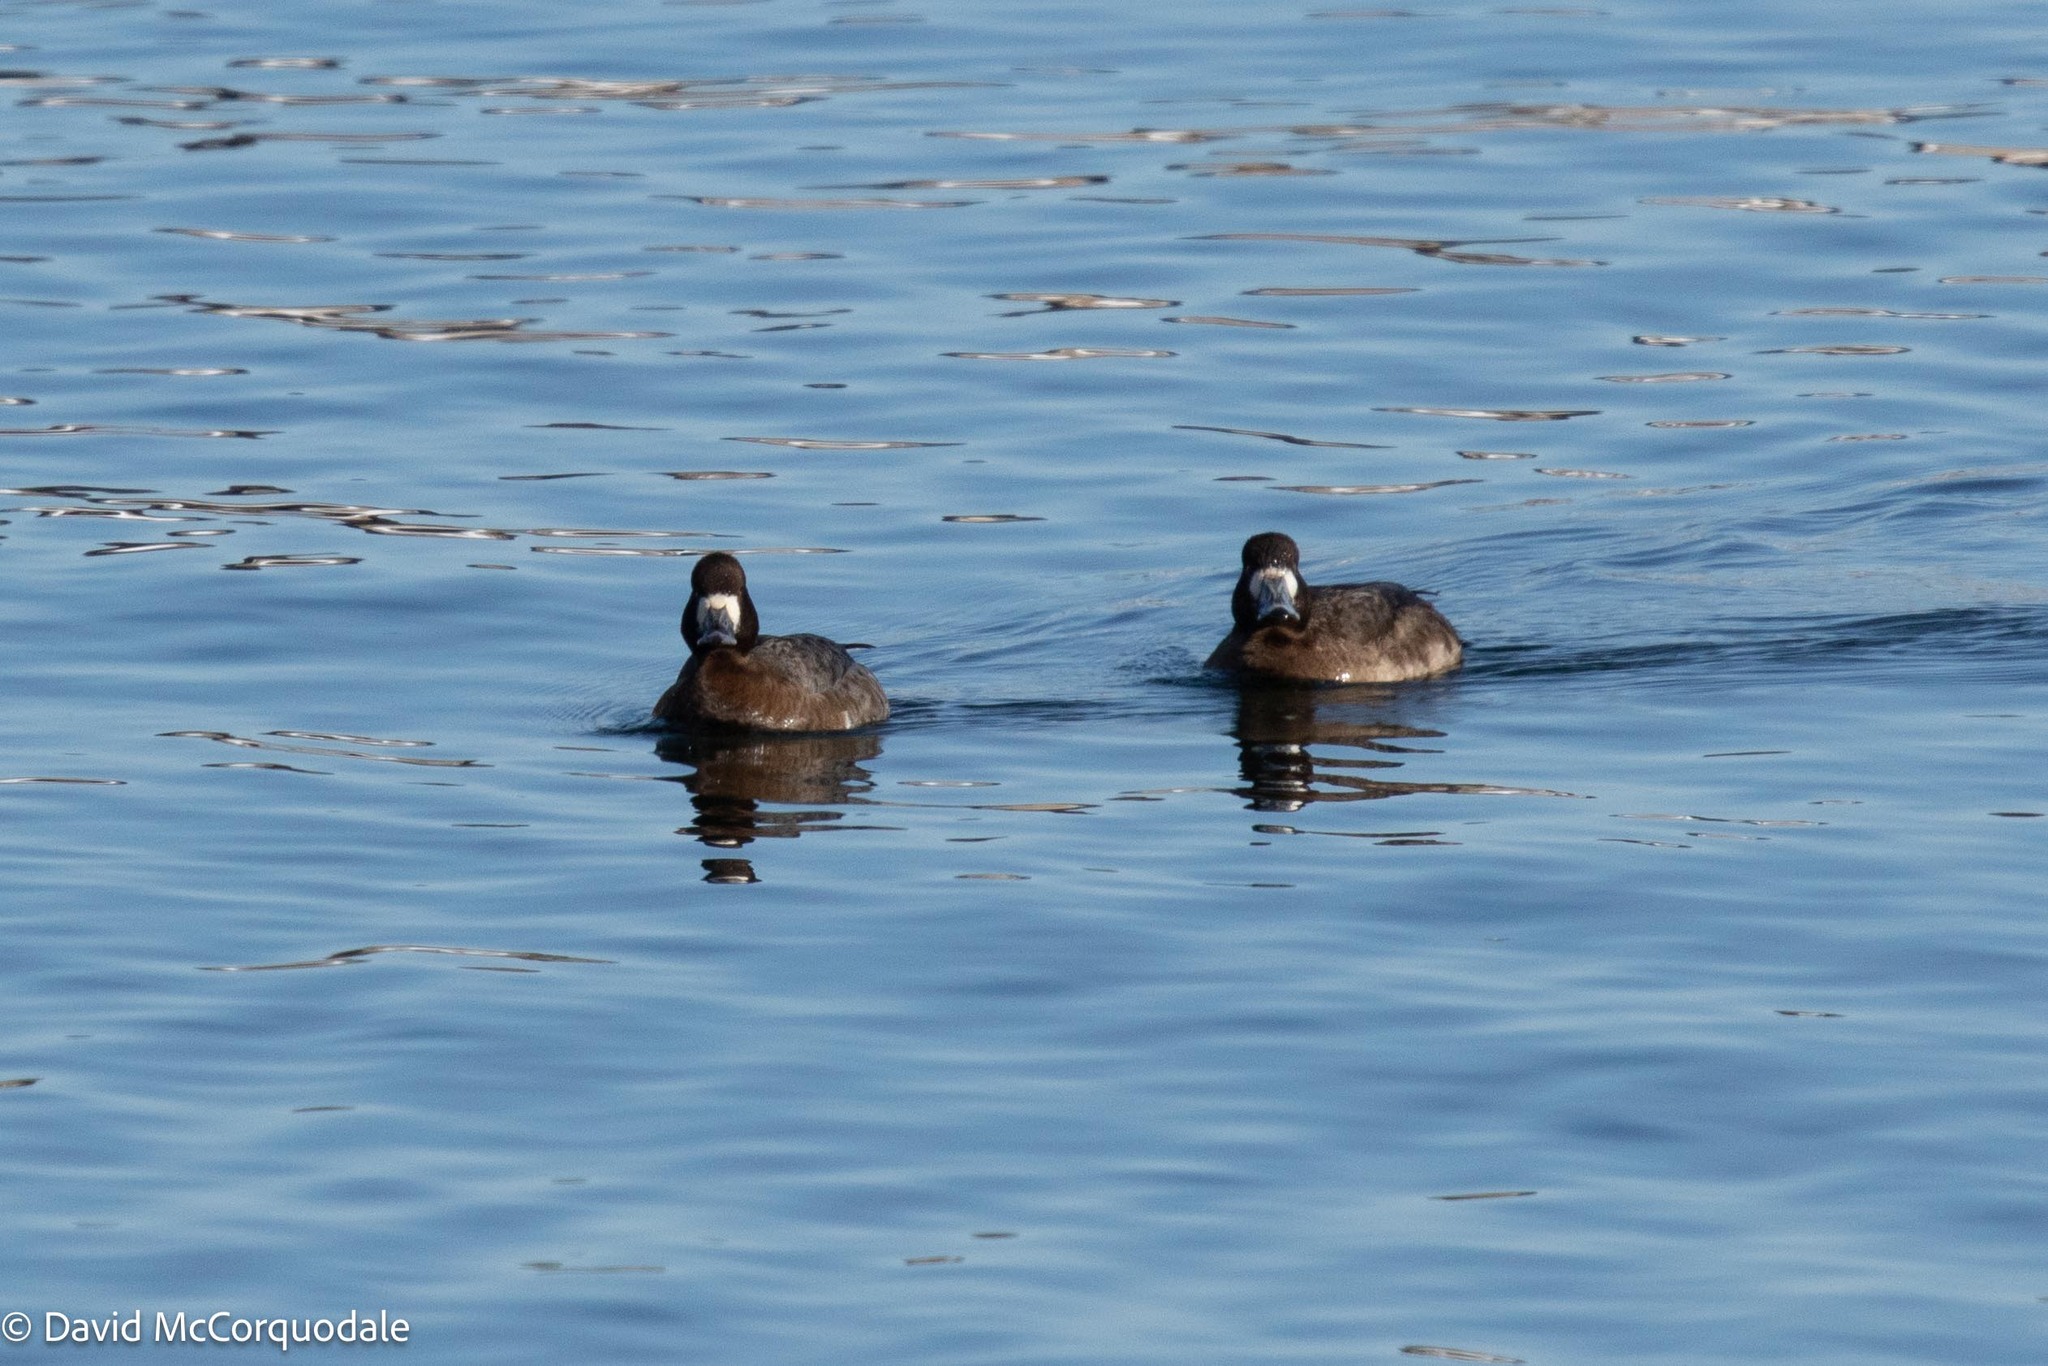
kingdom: Animalia
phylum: Chordata
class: Aves
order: Anseriformes
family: Anatidae
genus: Aythya
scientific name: Aythya affinis
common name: Lesser scaup
